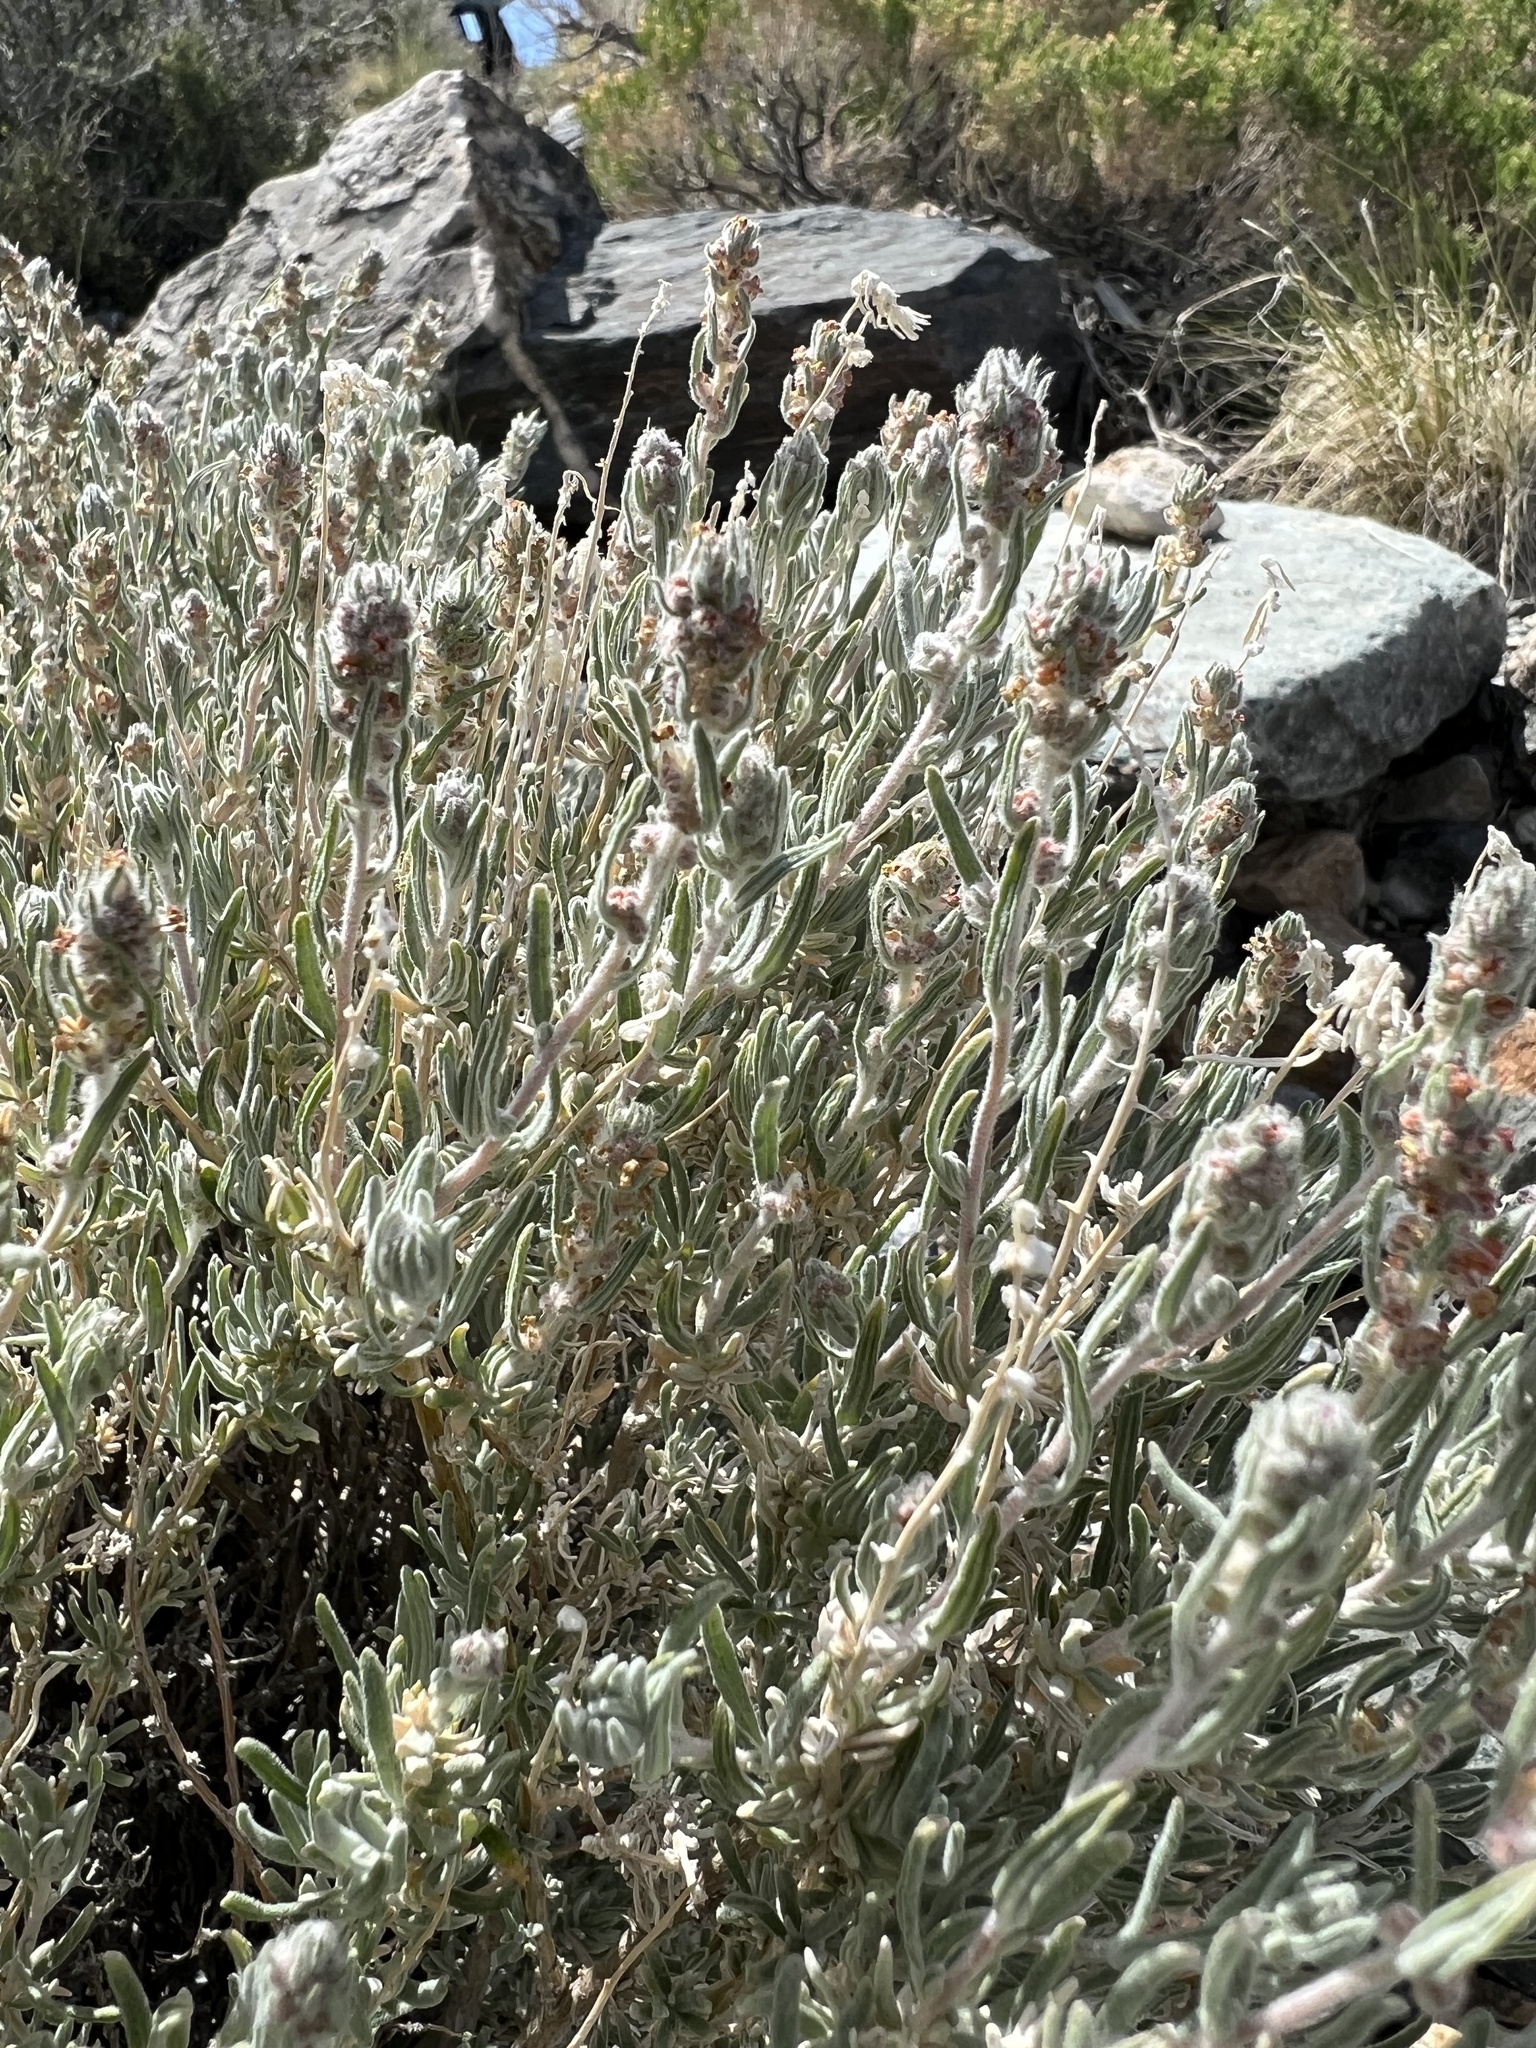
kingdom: Plantae
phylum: Tracheophyta
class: Magnoliopsida
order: Caryophyllales
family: Amaranthaceae
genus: Krascheninnikovia
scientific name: Krascheninnikovia lanata
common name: Winterfat
